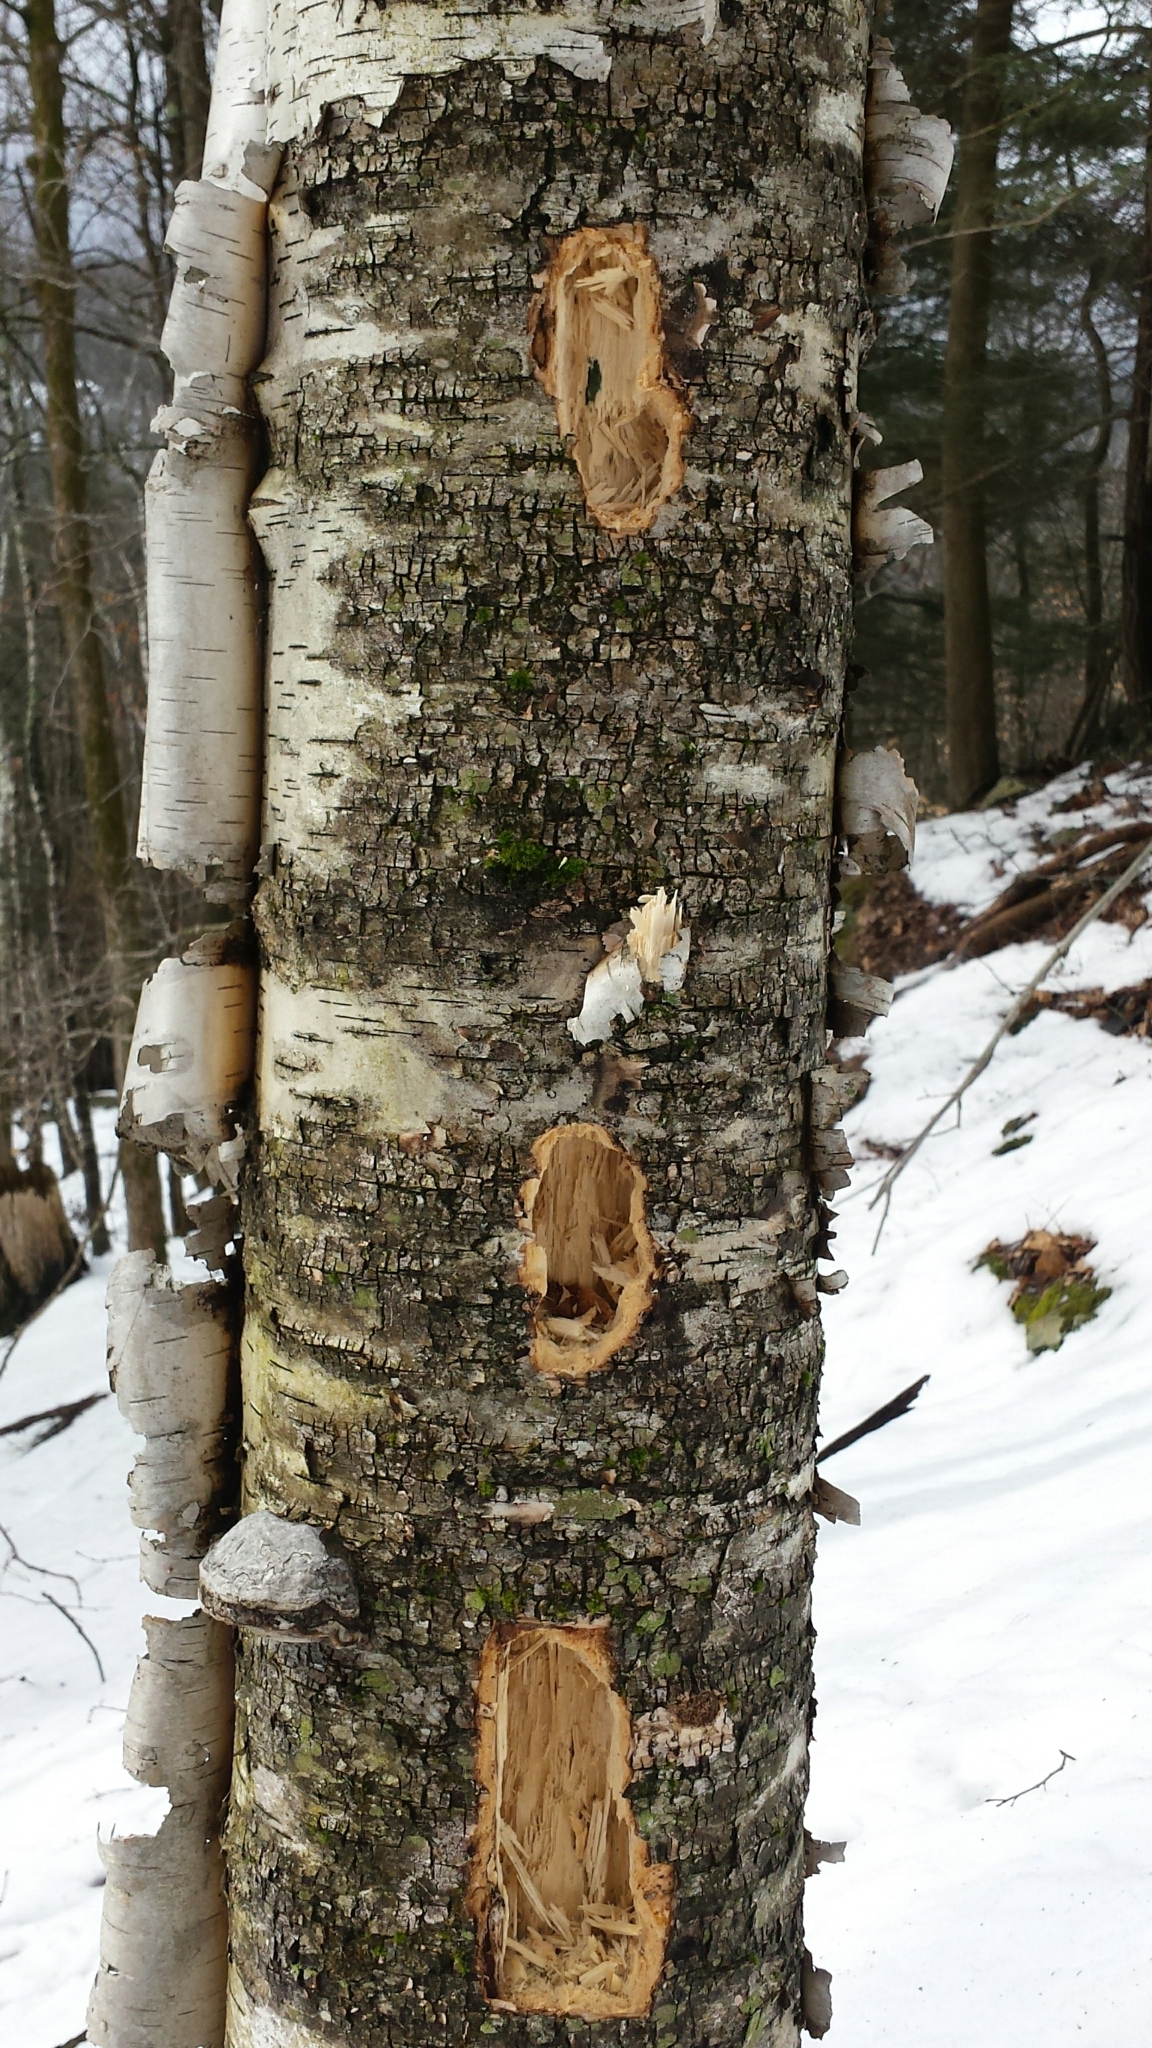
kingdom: Animalia
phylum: Chordata
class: Aves
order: Piciformes
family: Picidae
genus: Dryocopus
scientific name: Dryocopus pileatus
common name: Pileated woodpecker
